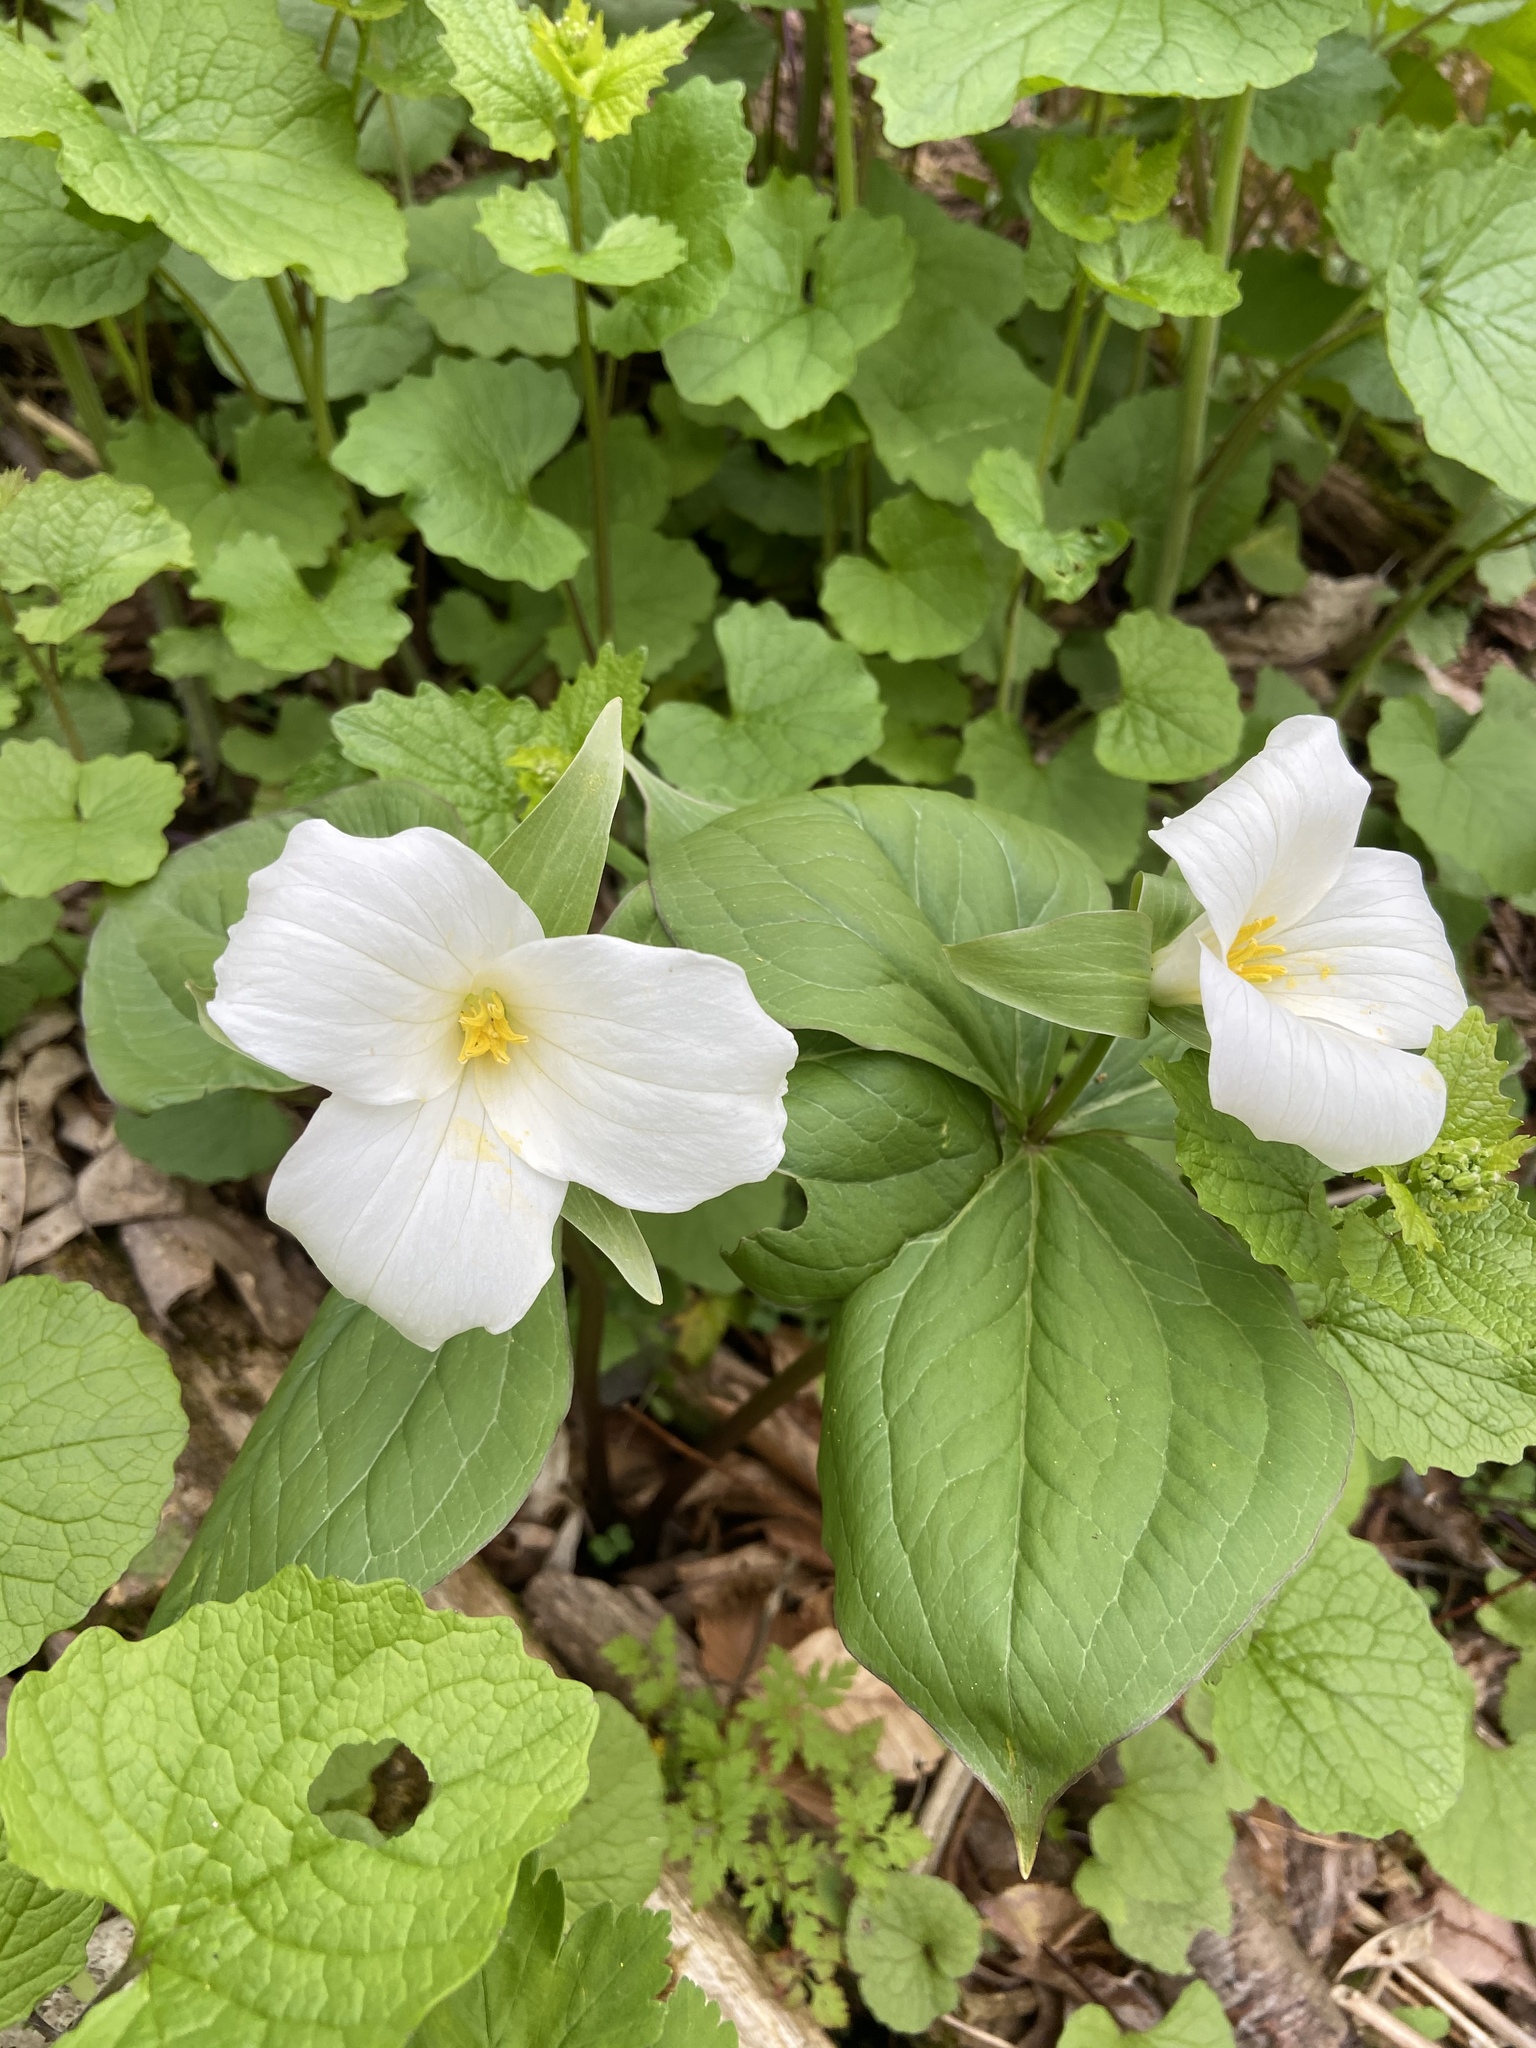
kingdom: Plantae
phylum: Tracheophyta
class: Liliopsida
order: Liliales
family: Melanthiaceae
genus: Trillium
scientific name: Trillium grandiflorum
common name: Great white trillium
